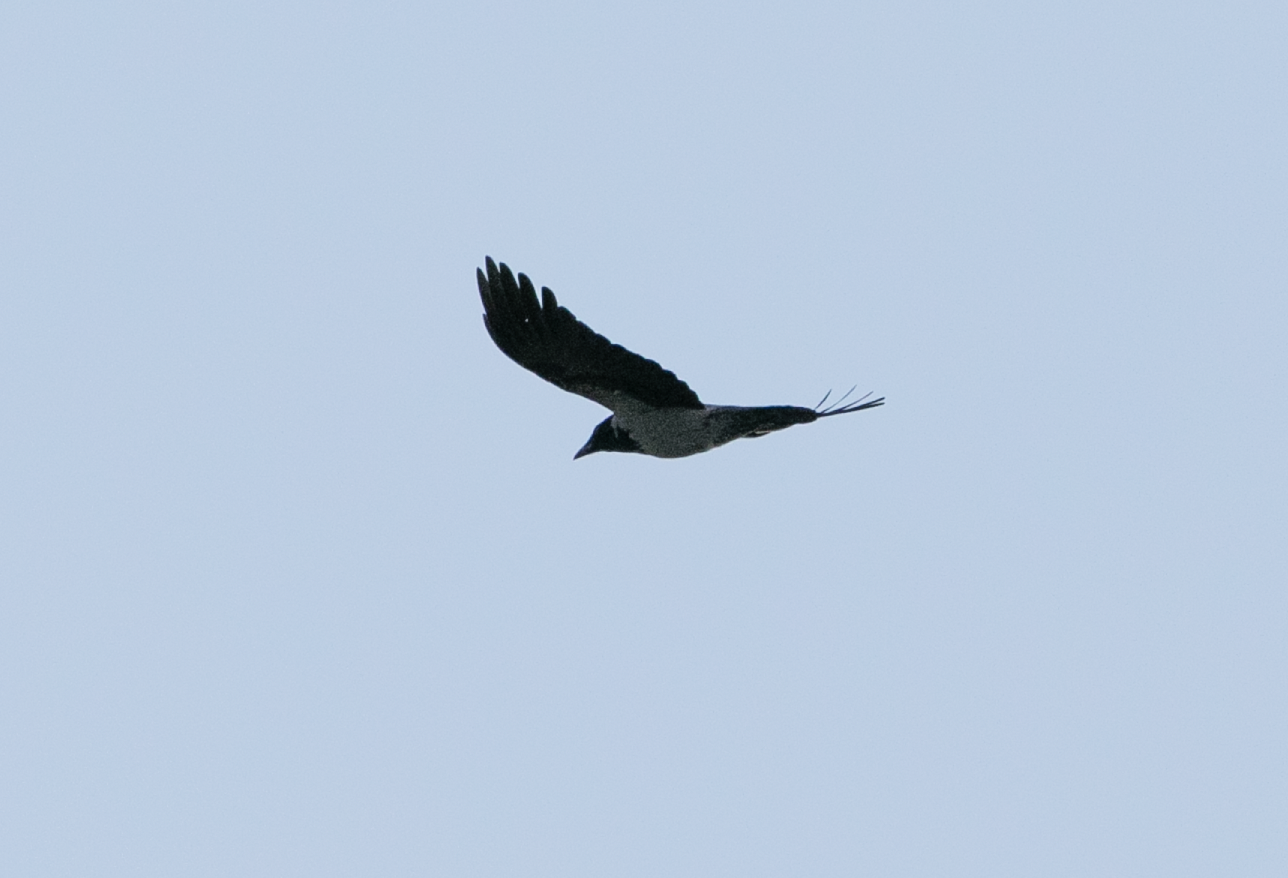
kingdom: Animalia
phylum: Chordata
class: Aves
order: Passeriformes
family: Corvidae
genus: Corvus
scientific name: Corvus cornix
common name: Hooded crow
